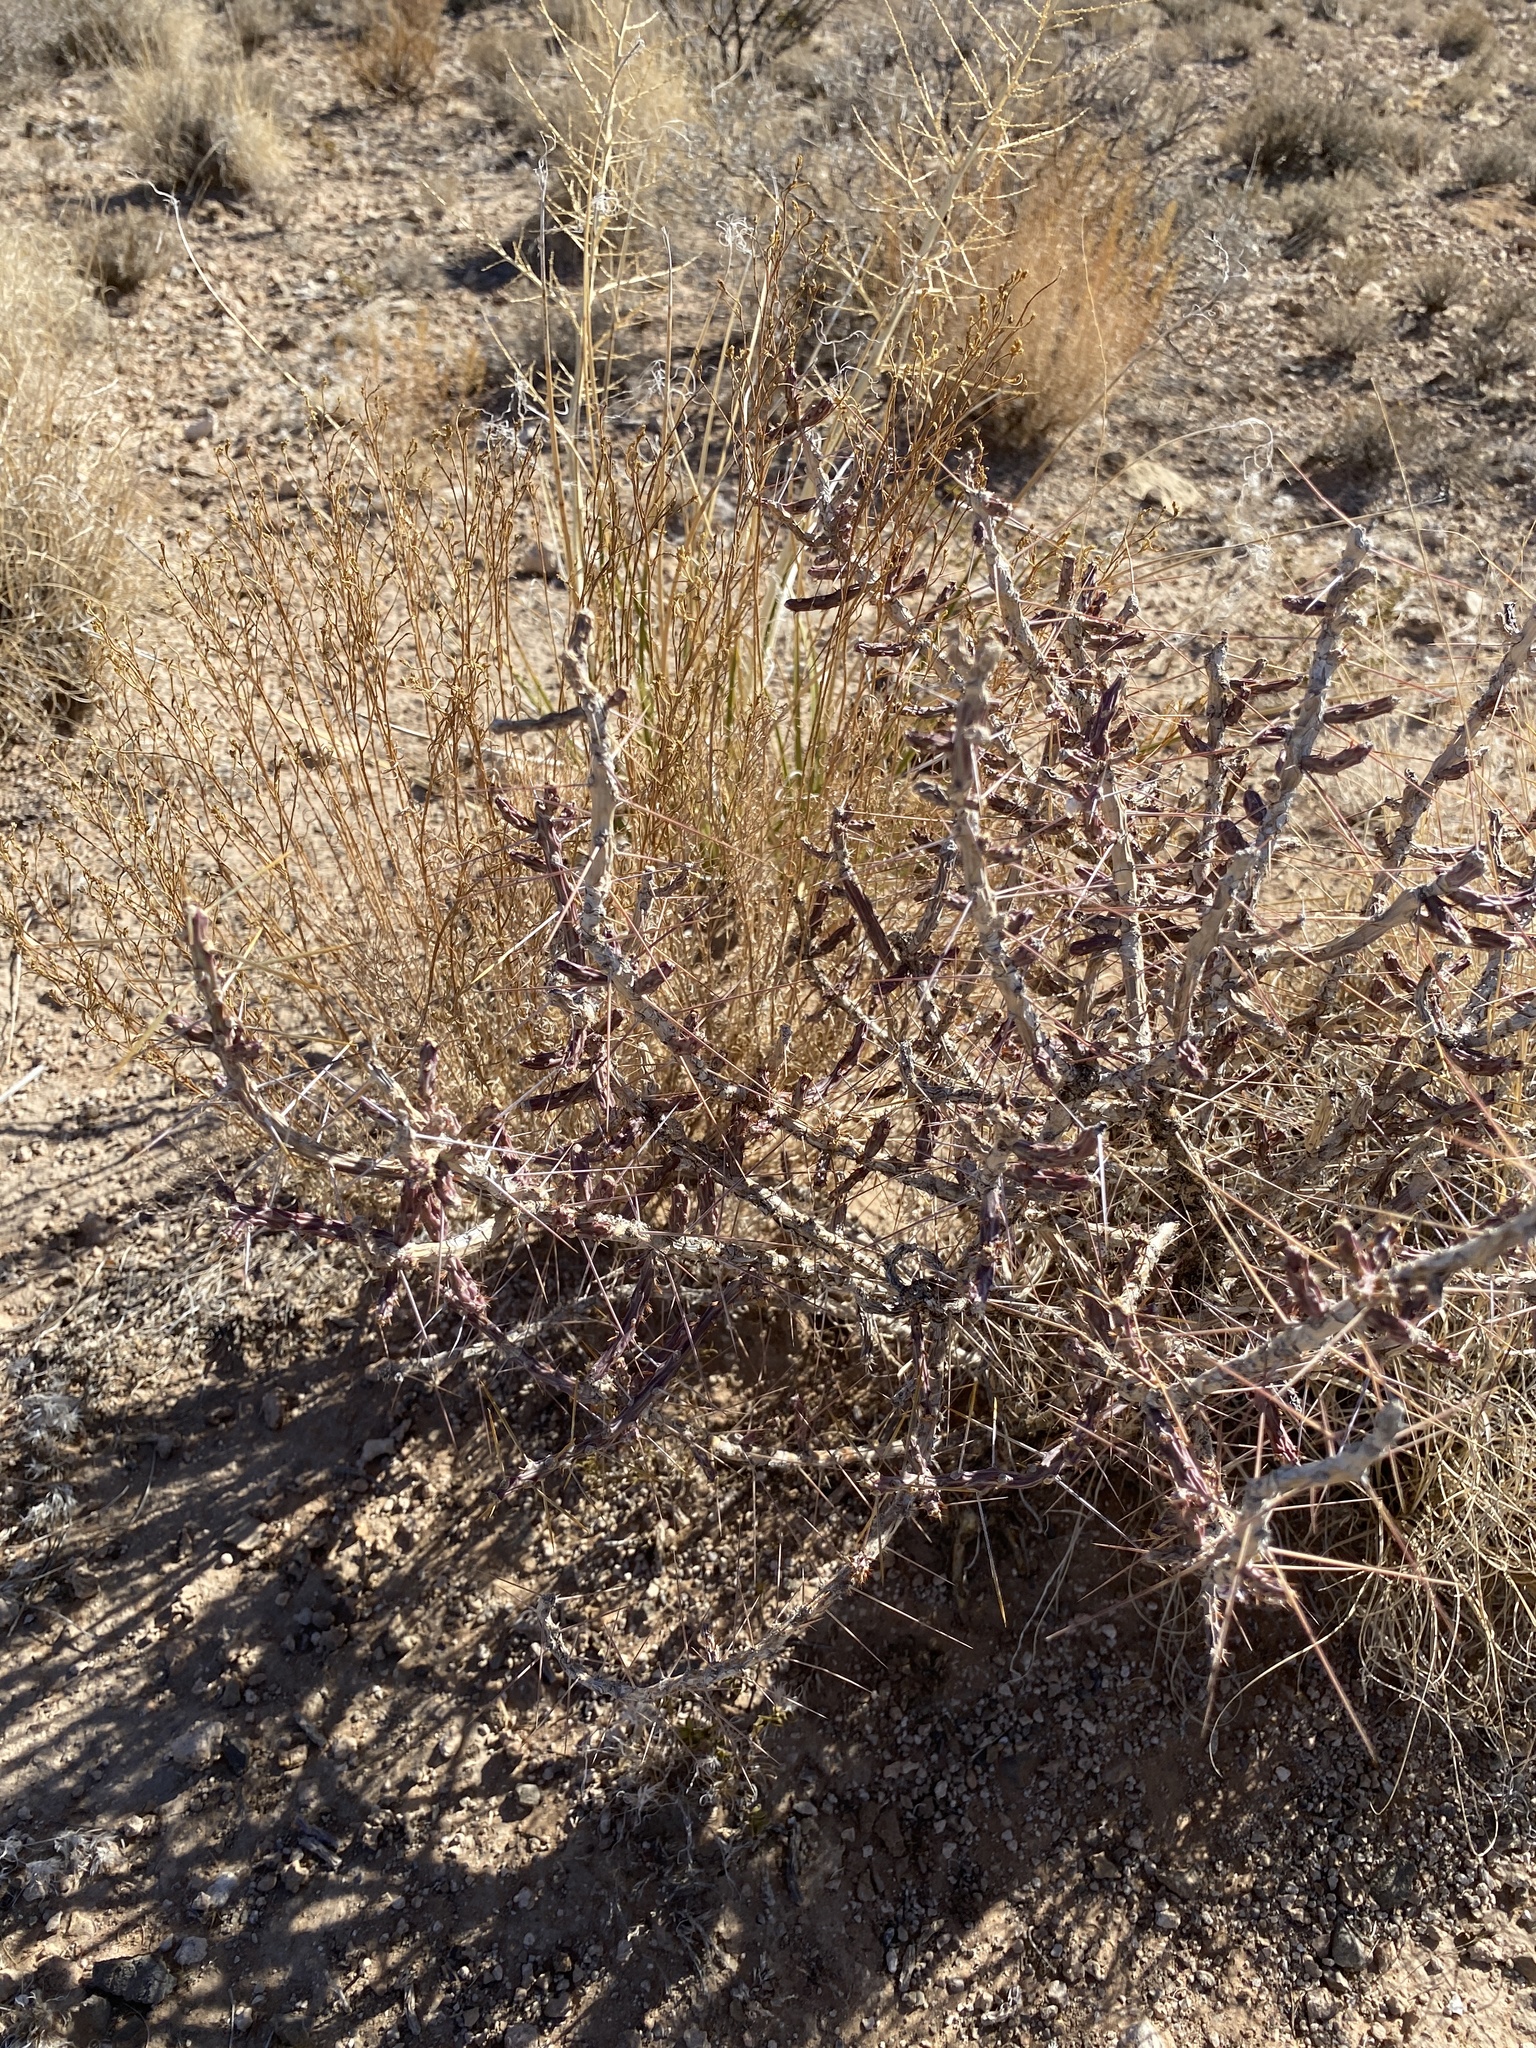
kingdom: Plantae
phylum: Tracheophyta
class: Magnoliopsida
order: Caryophyllales
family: Cactaceae
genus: Cylindropuntia
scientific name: Cylindropuntia leptocaulis
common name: Christmas cactus
